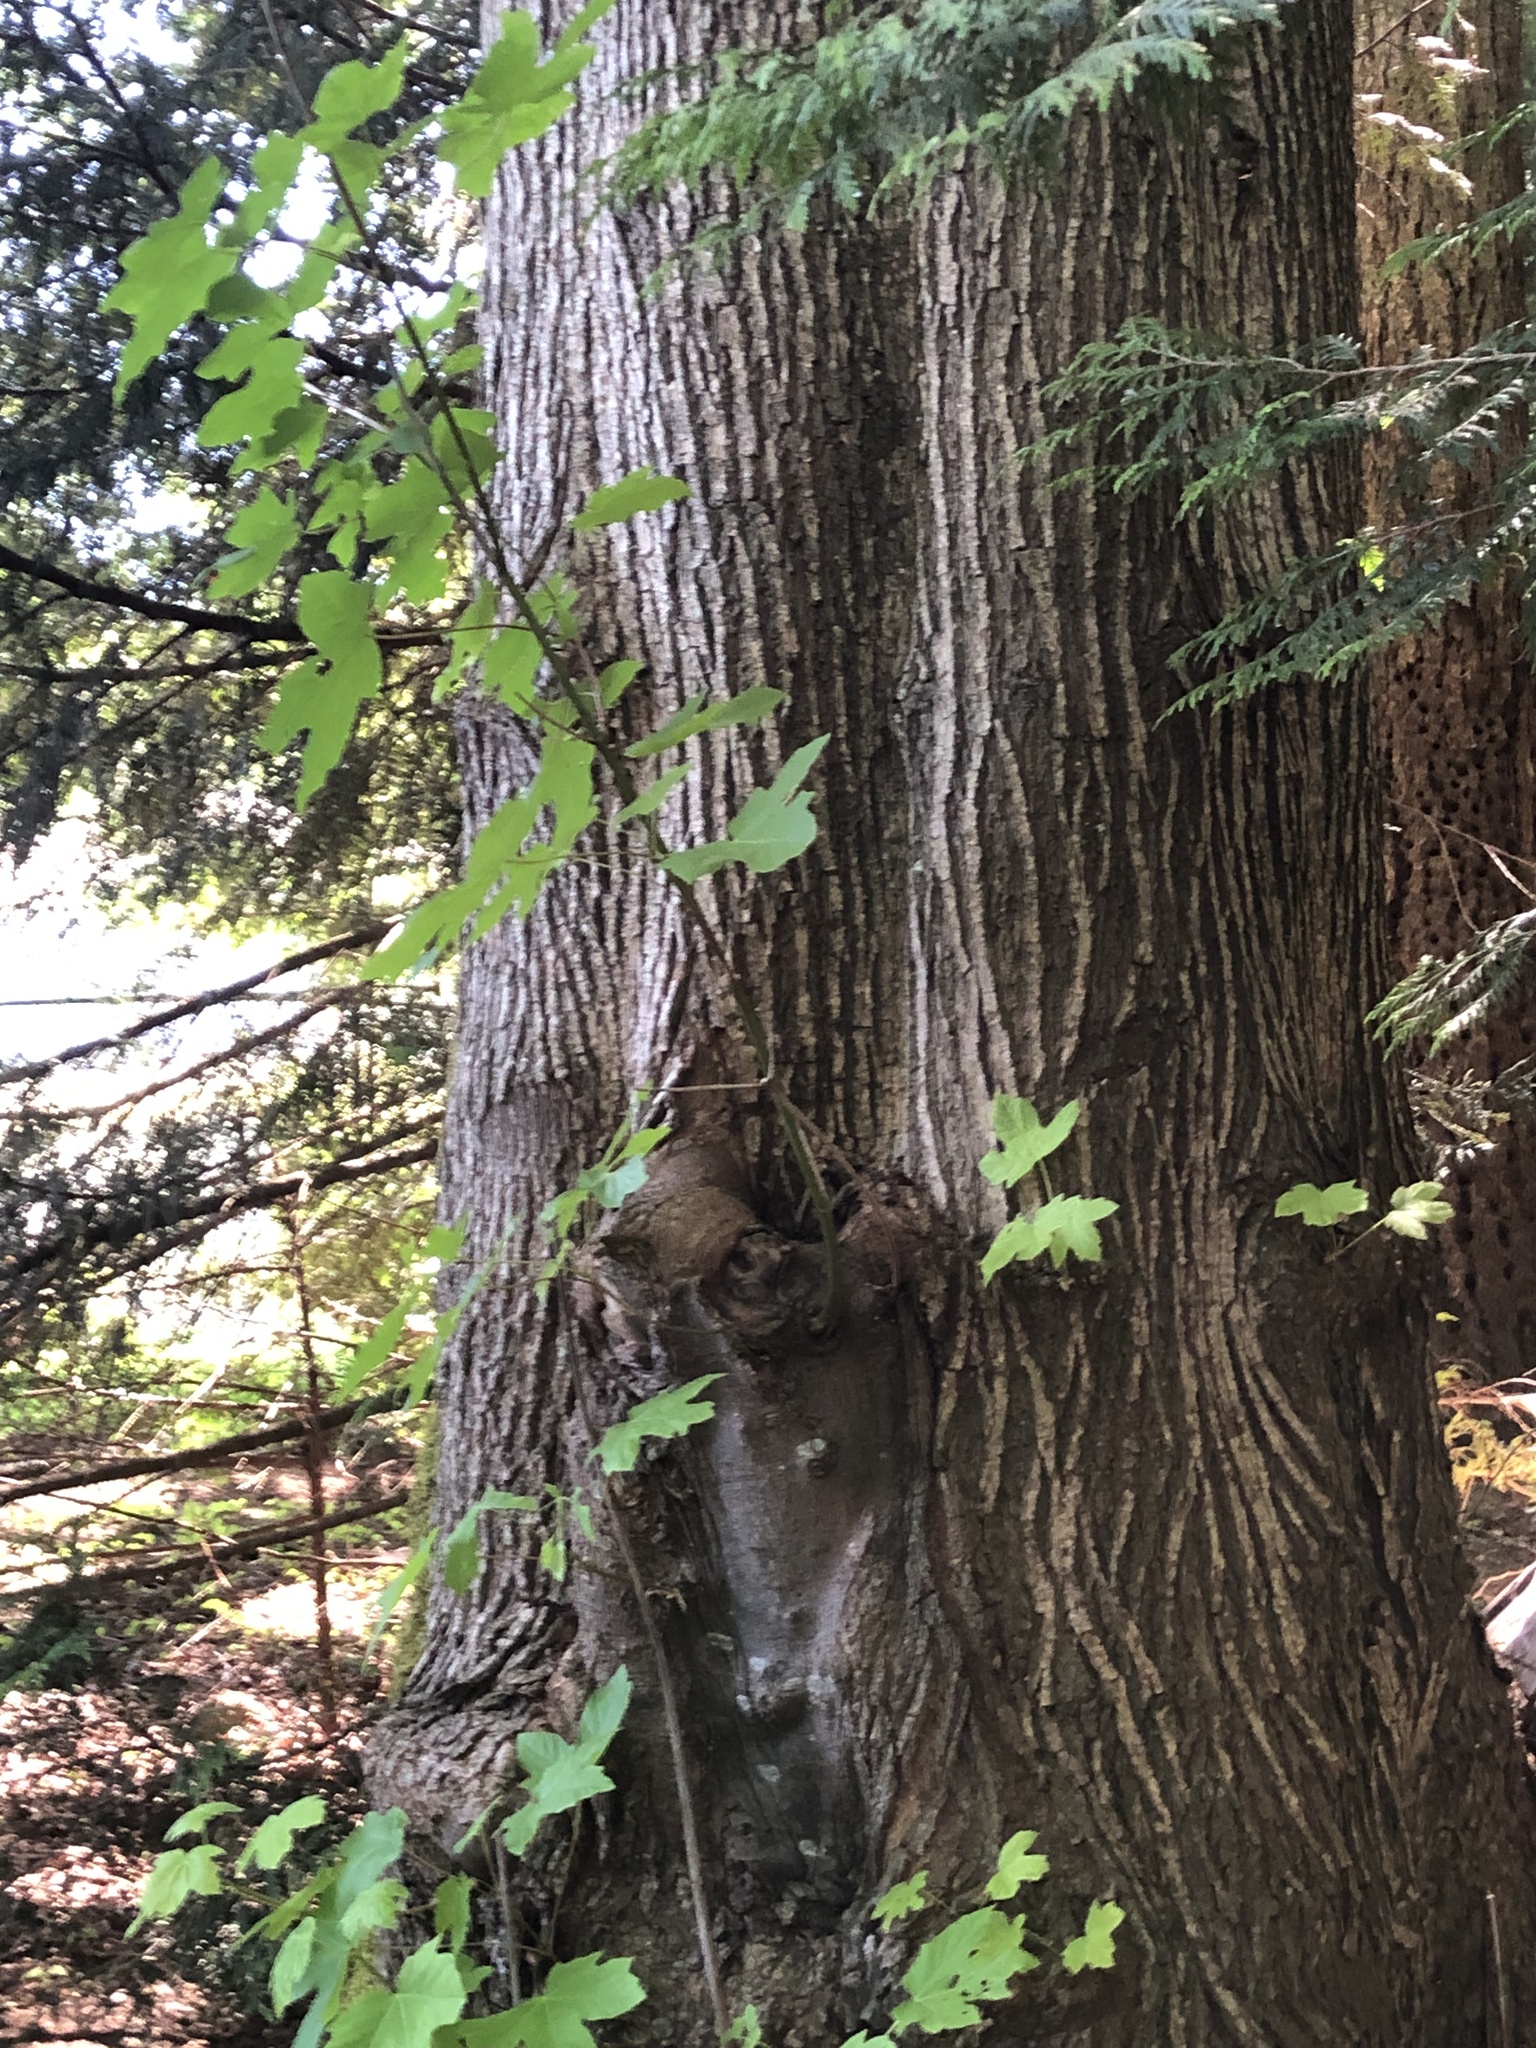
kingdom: Plantae
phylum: Tracheophyta
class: Magnoliopsida
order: Sapindales
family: Sapindaceae
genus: Acer
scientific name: Acer macrophyllum
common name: Oregon maple
